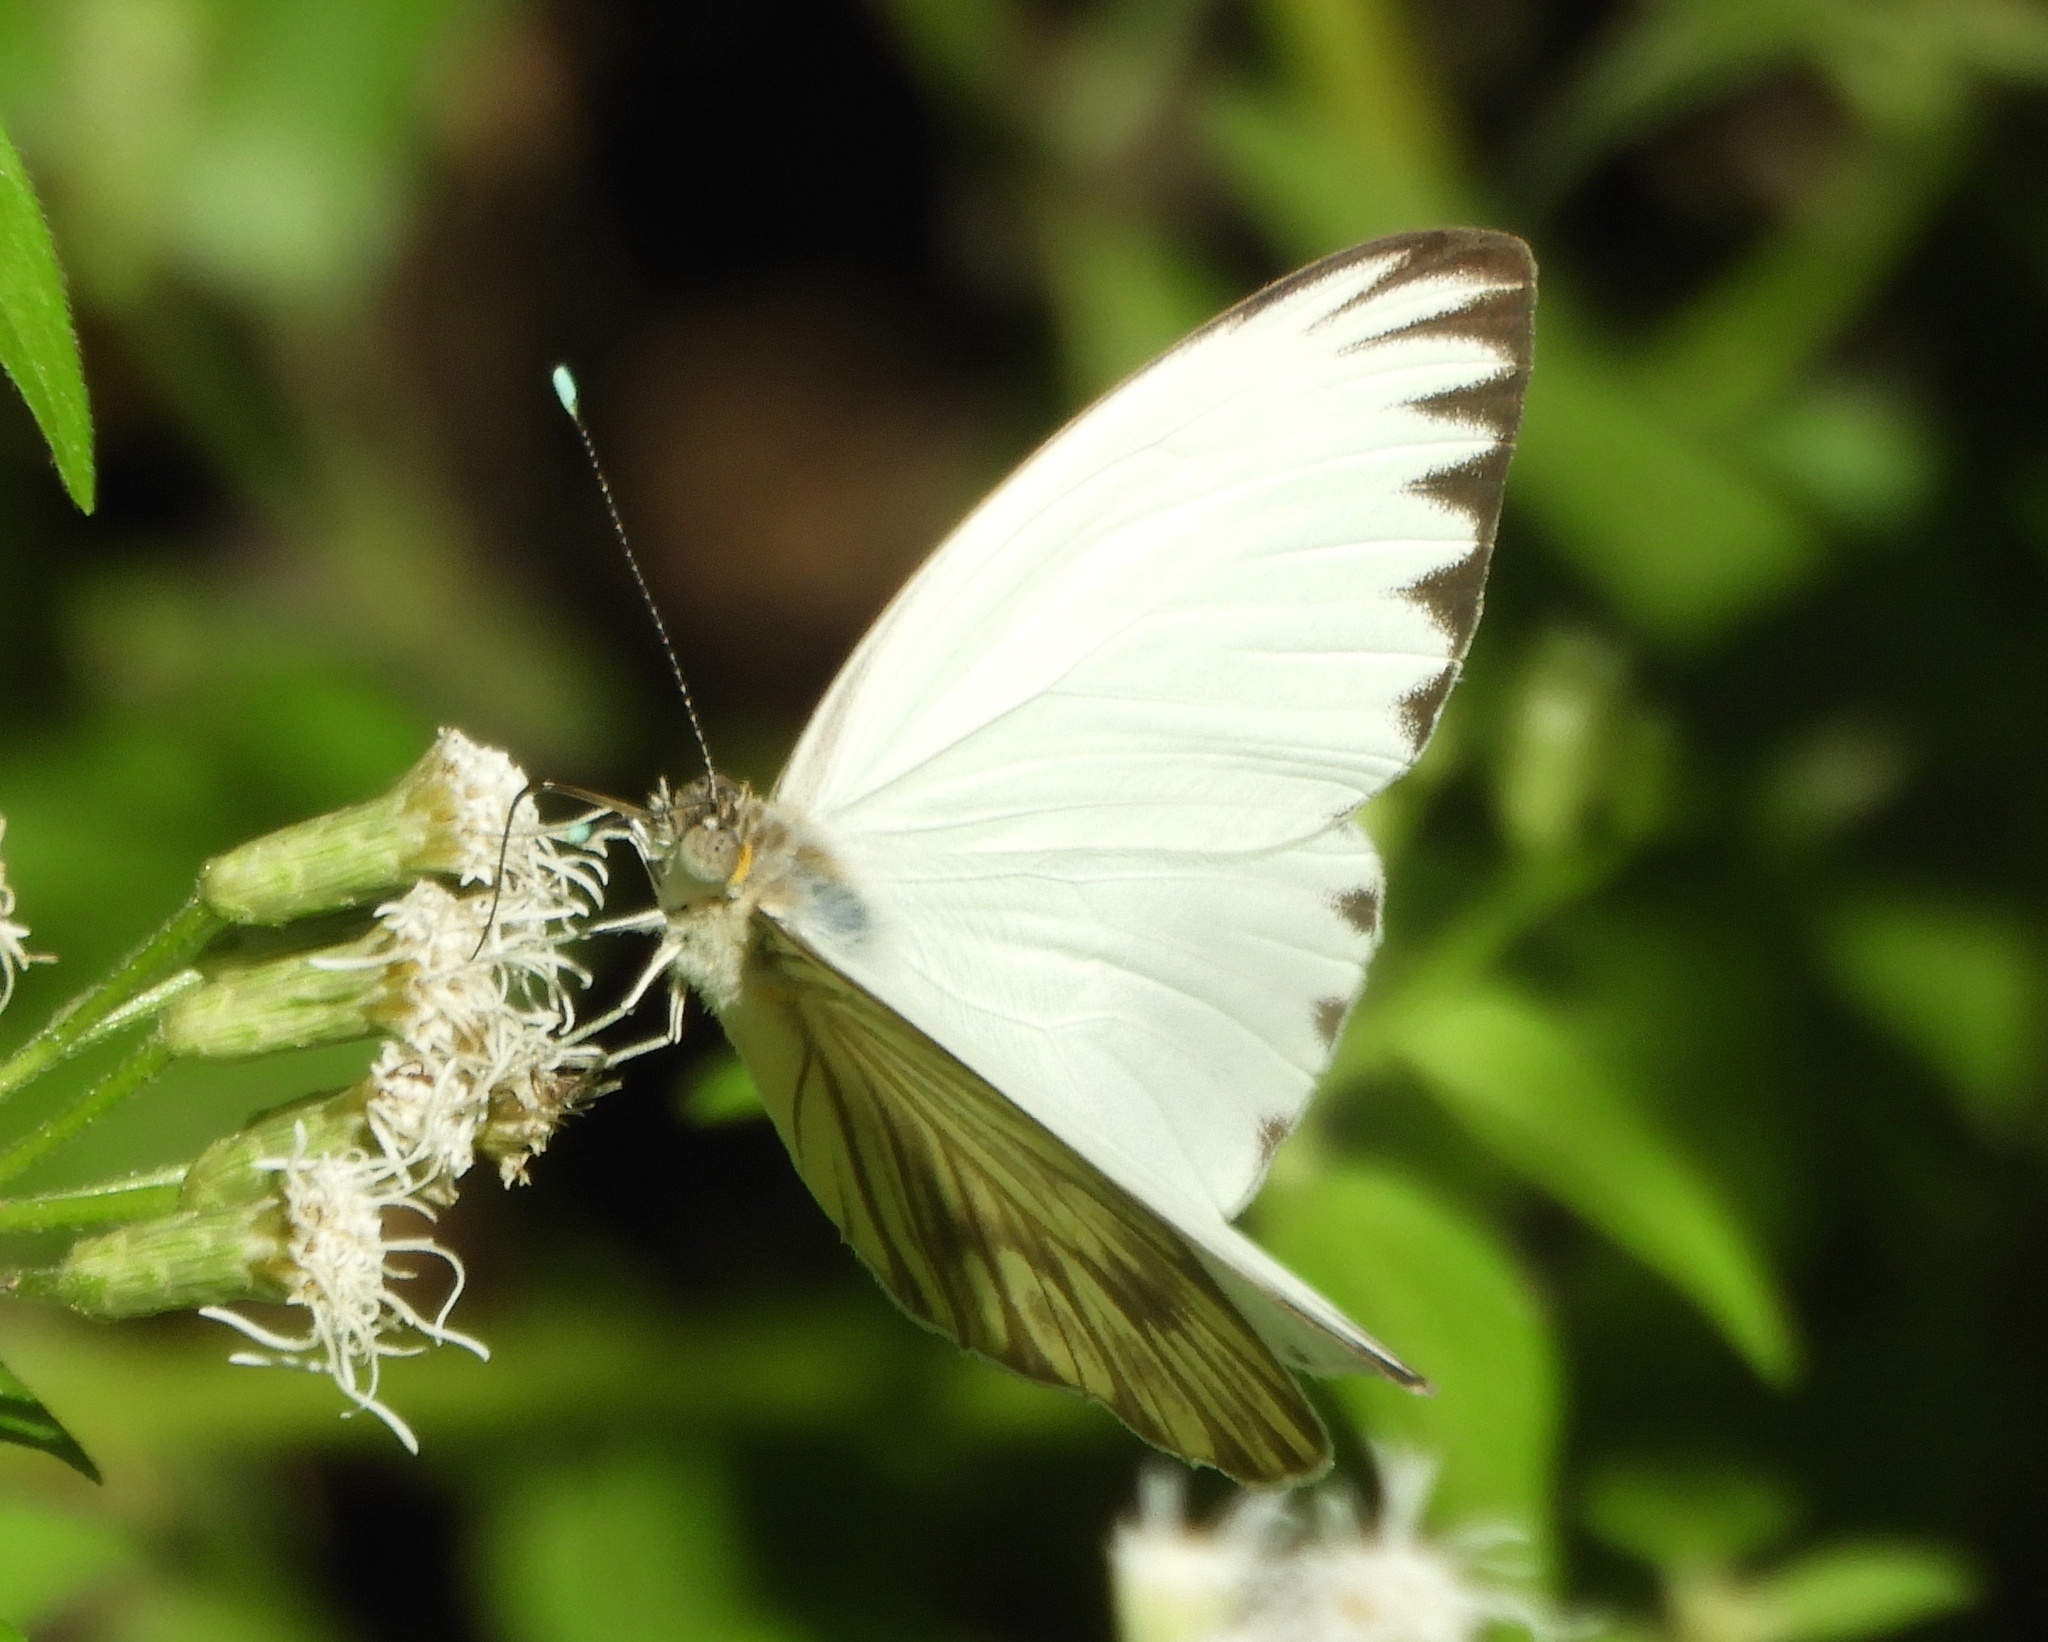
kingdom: Animalia
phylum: Arthropoda
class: Insecta
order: Lepidoptera
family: Pieridae
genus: Ascia
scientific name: Ascia monuste
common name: Great southern white
